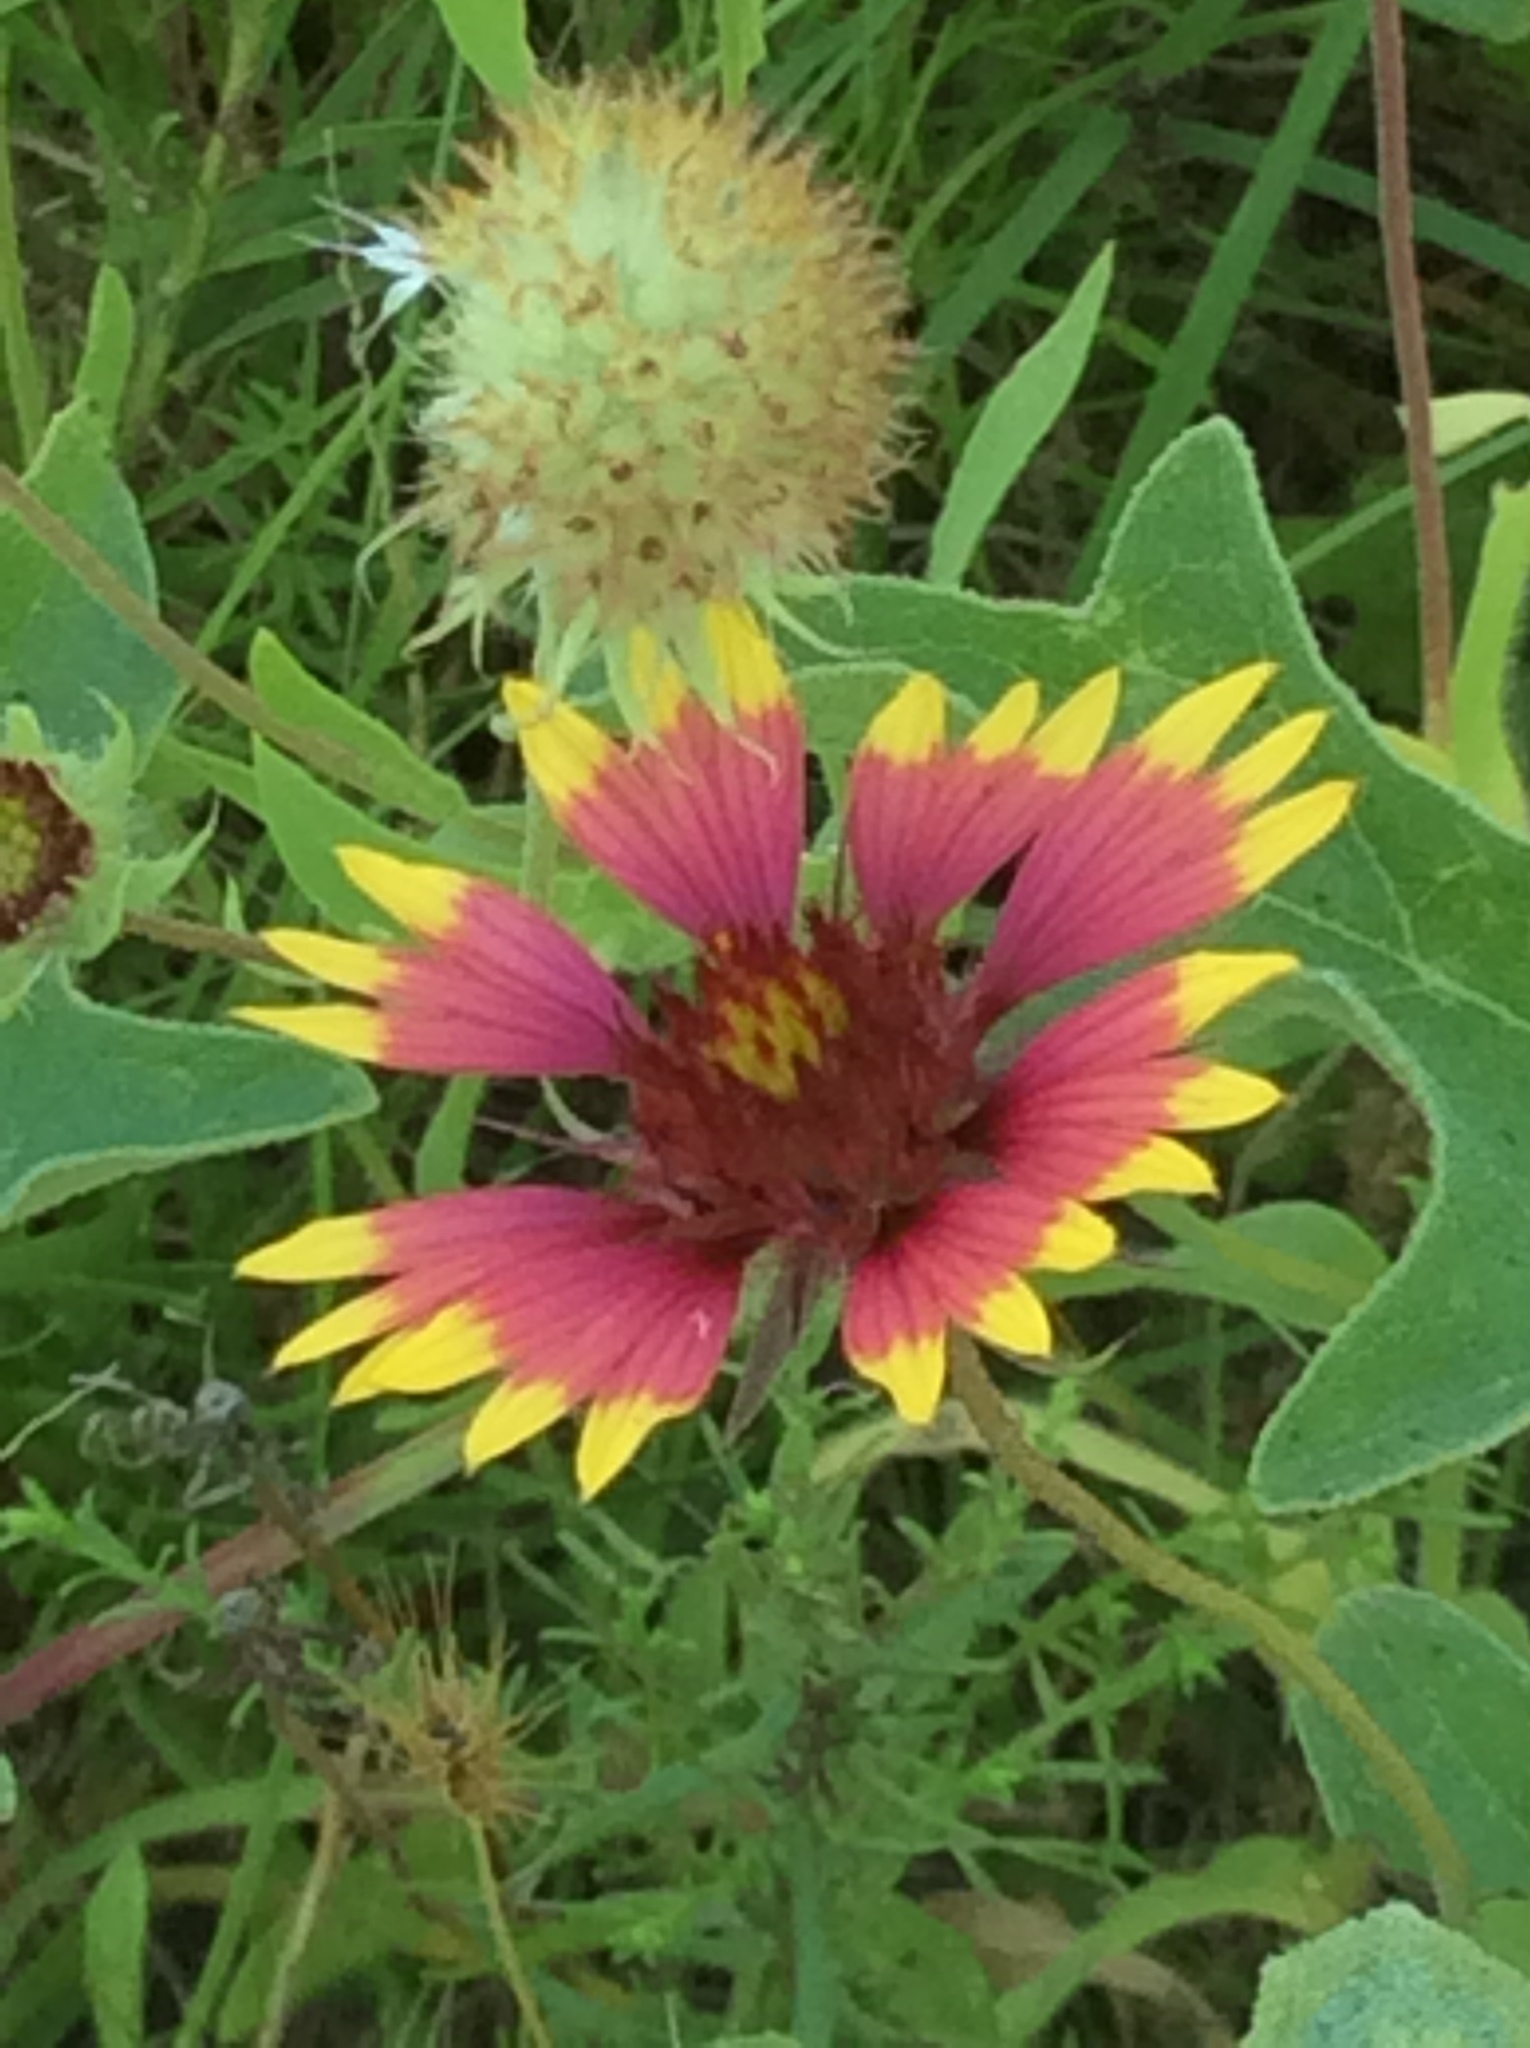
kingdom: Plantae
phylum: Tracheophyta
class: Magnoliopsida
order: Asterales
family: Asteraceae
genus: Gaillardia
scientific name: Gaillardia pulchella
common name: Firewheel
